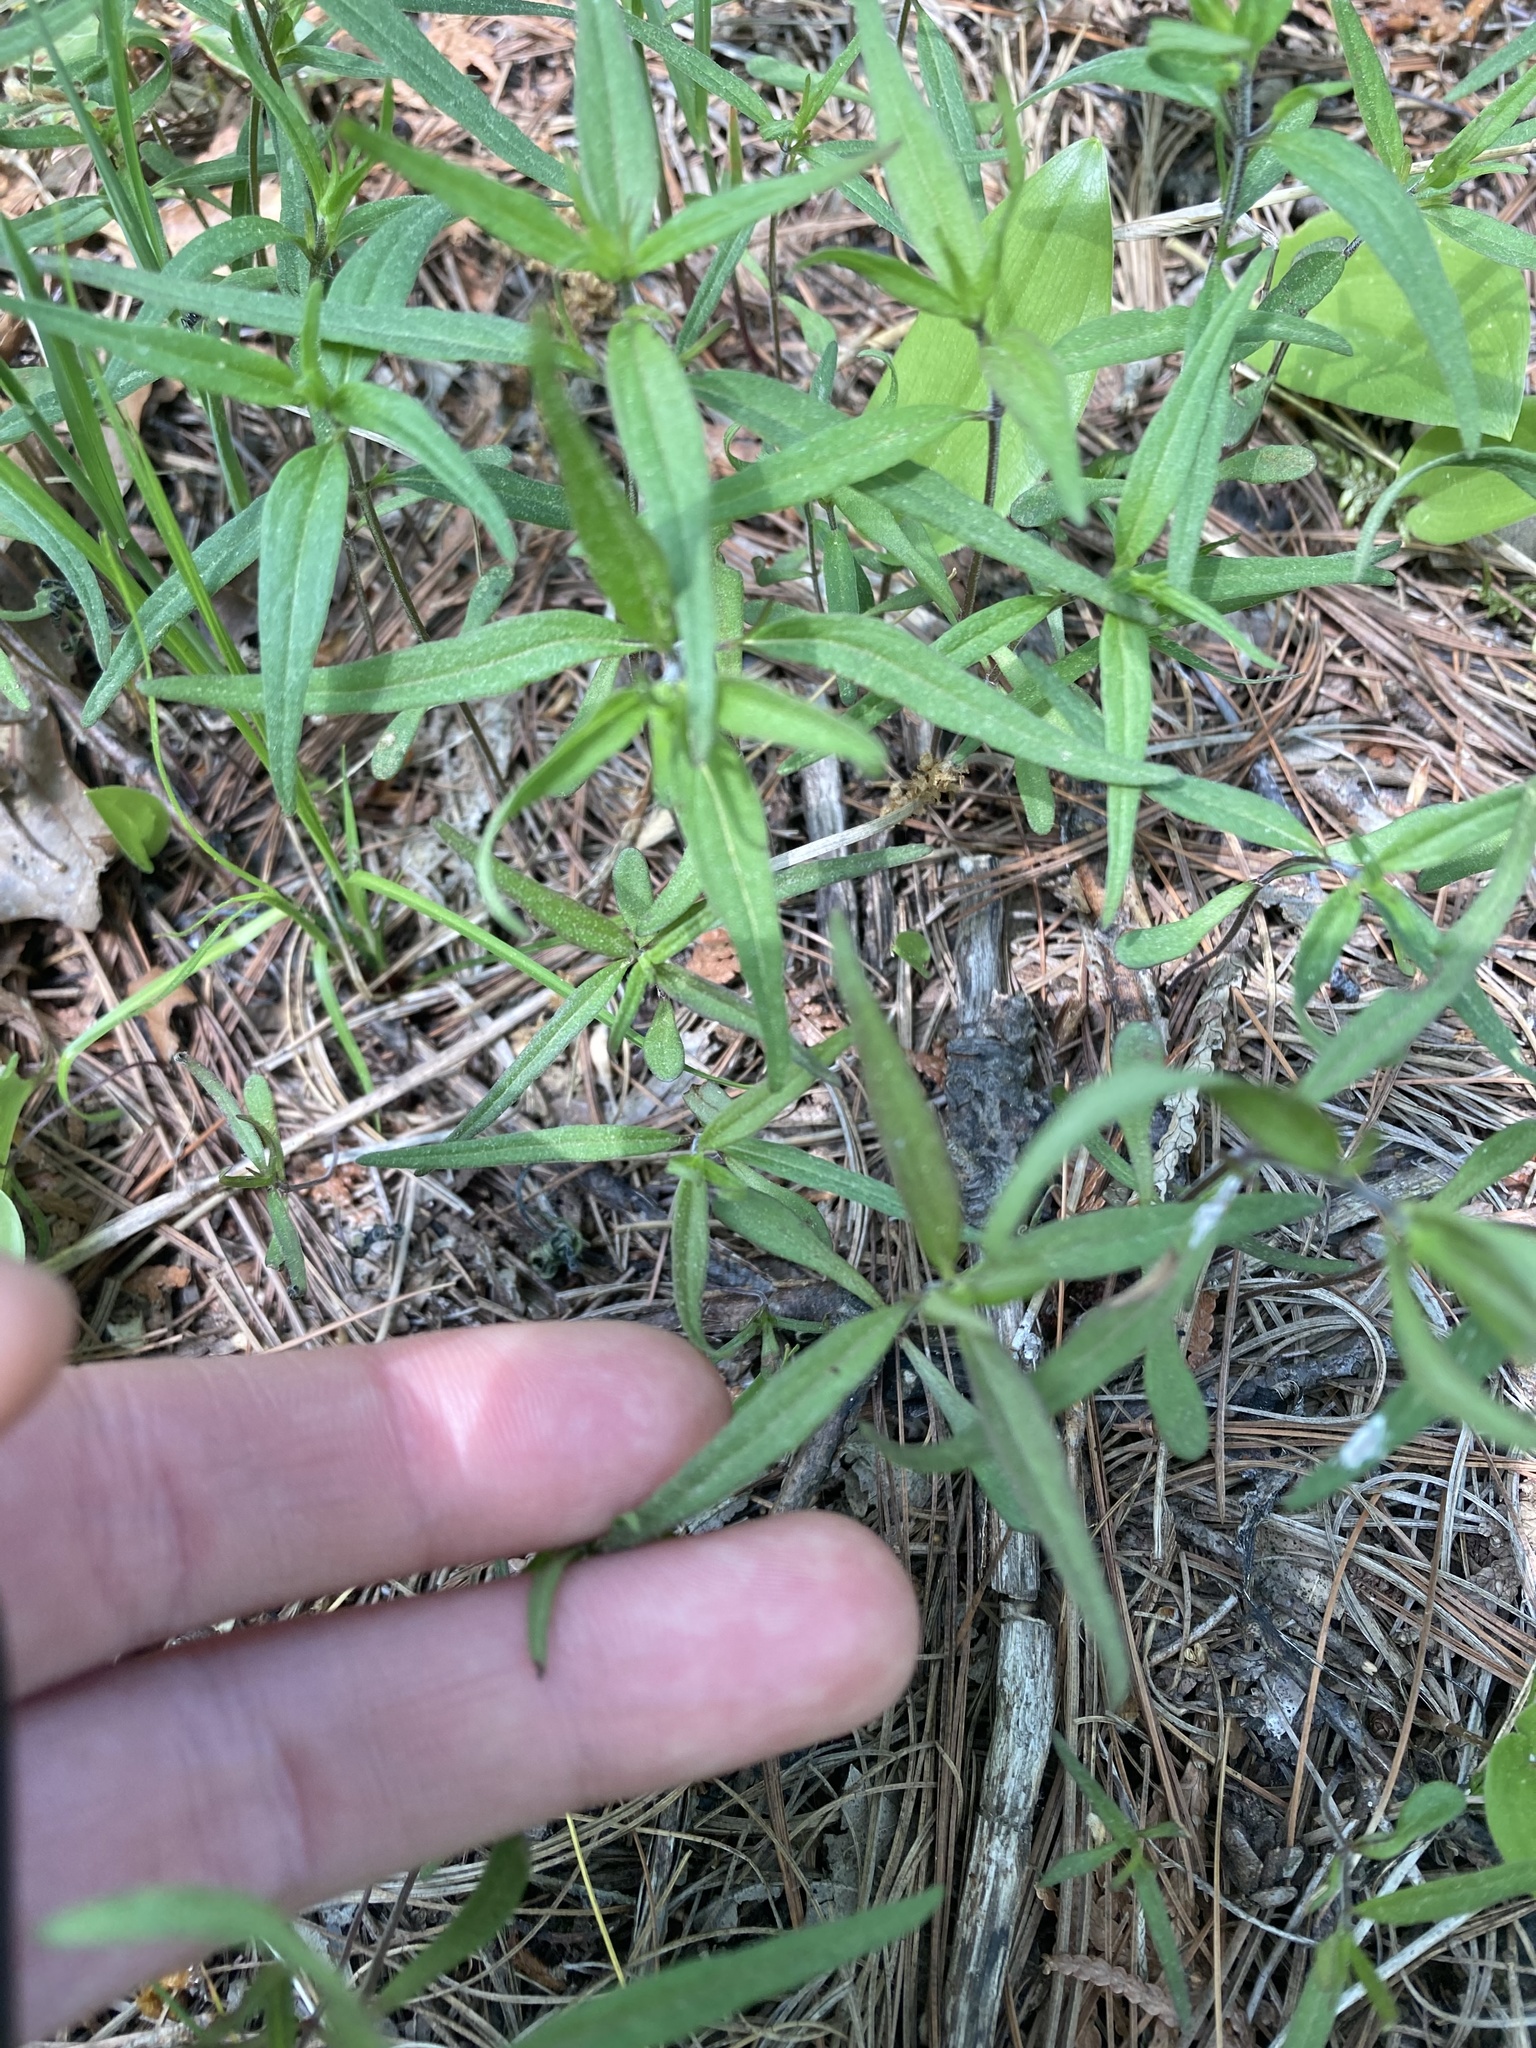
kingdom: Plantae
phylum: Tracheophyta
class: Magnoliopsida
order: Lamiales
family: Orobanchaceae
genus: Melampyrum
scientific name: Melampyrum lineare
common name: American cow-wheat
